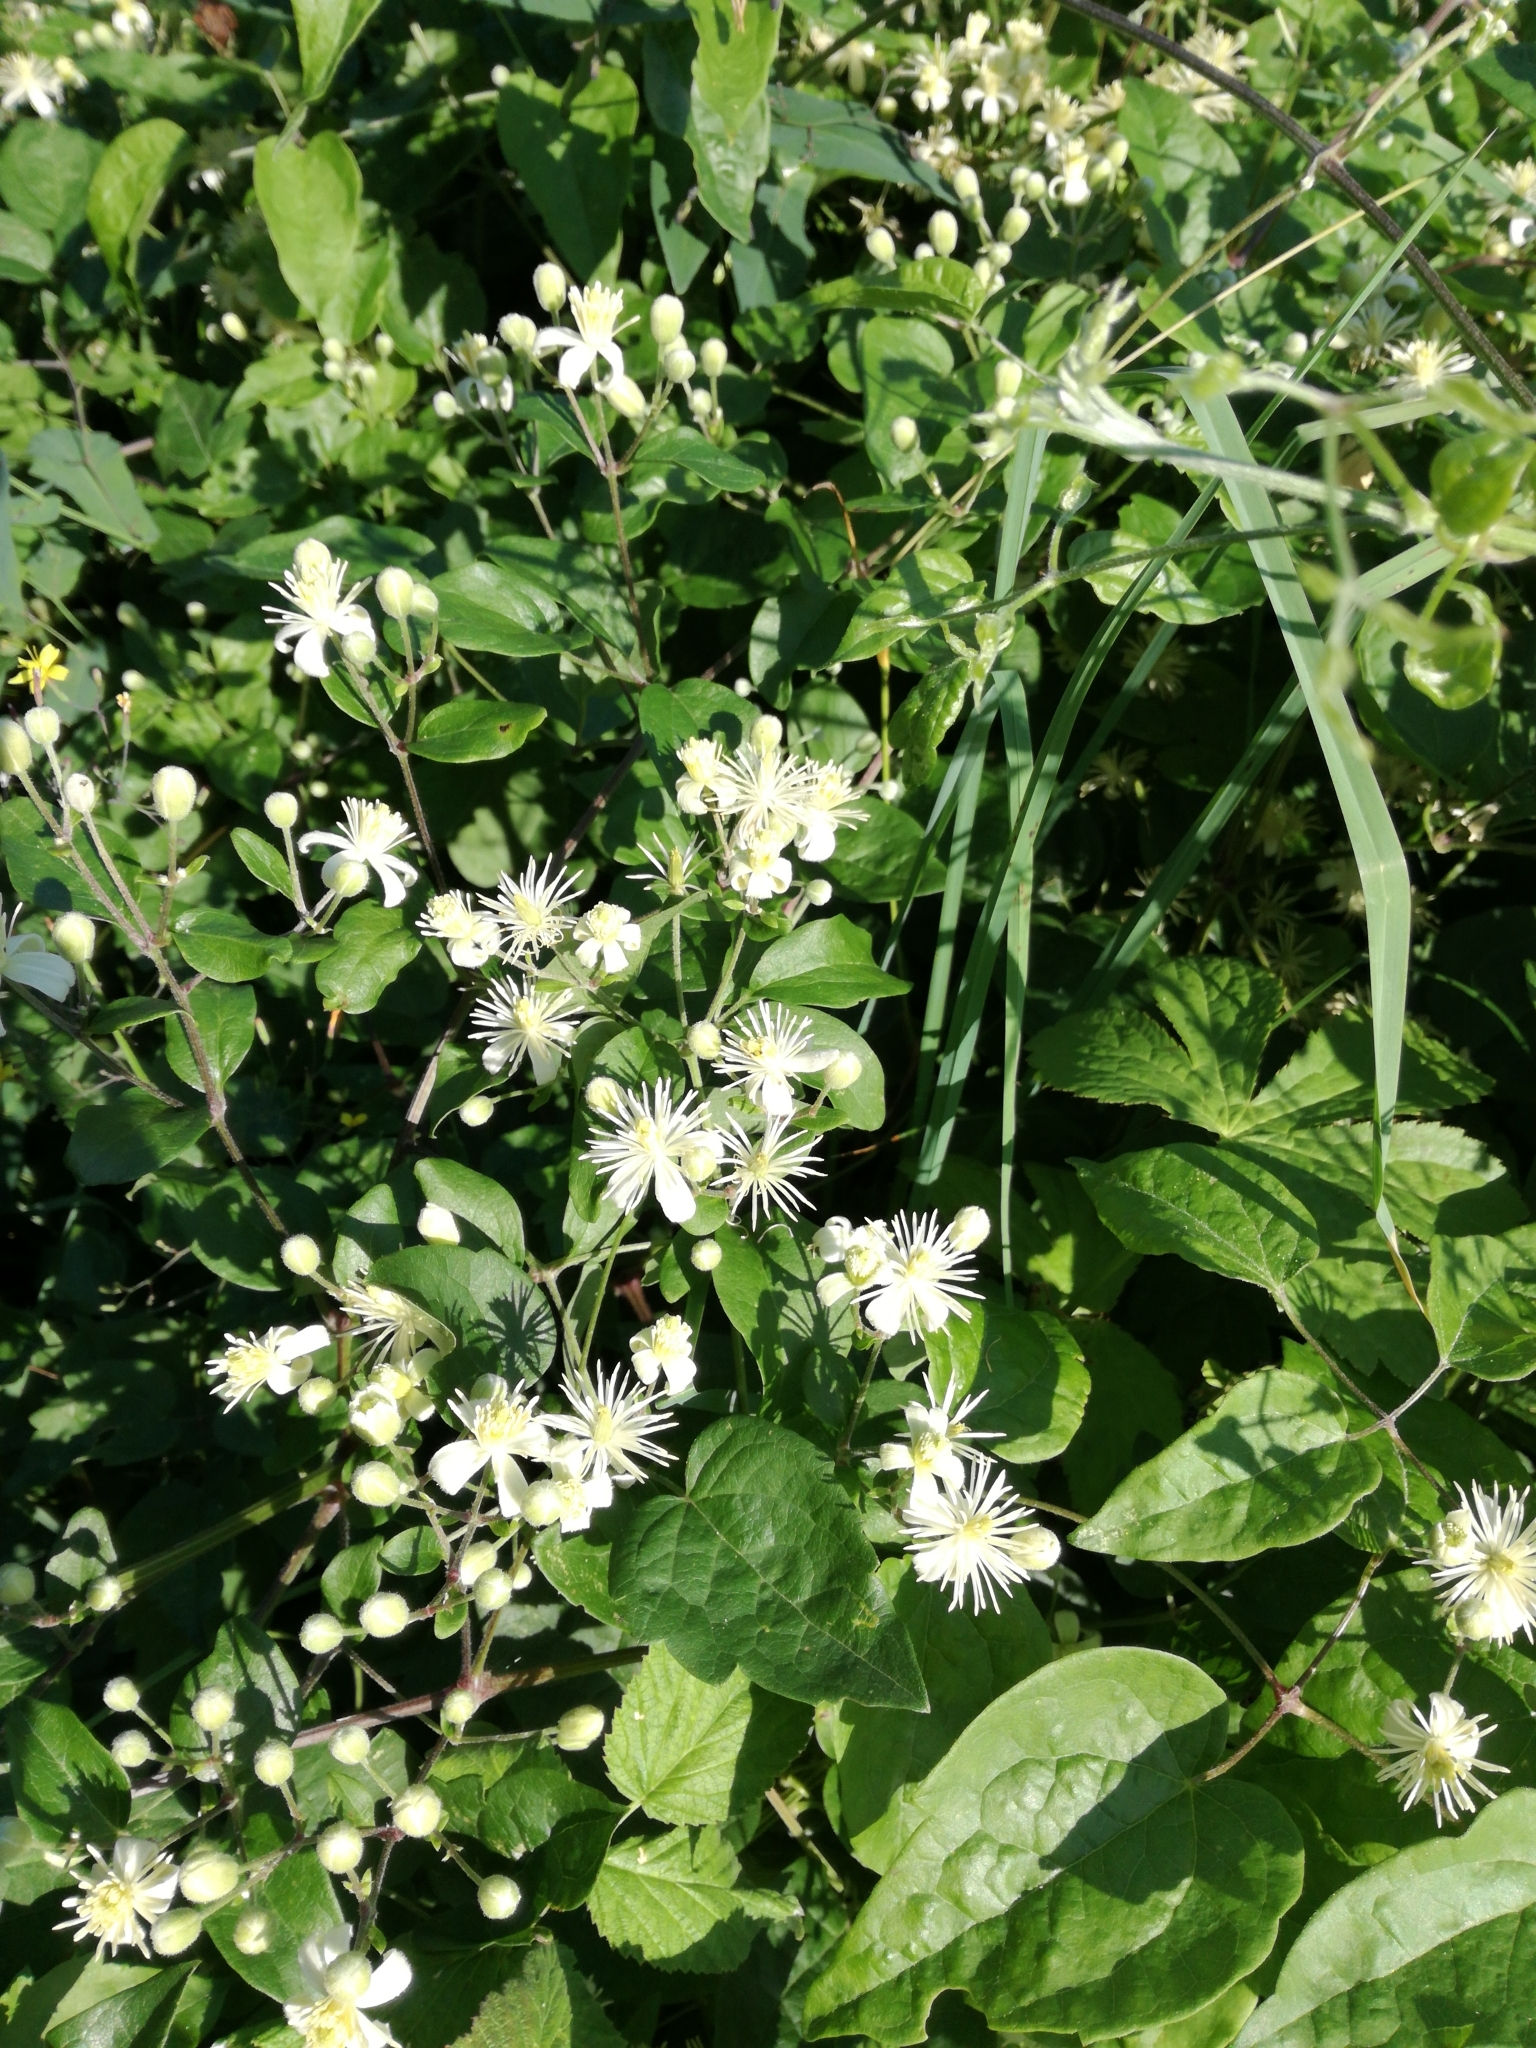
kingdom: Plantae
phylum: Tracheophyta
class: Magnoliopsida
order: Ranunculales
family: Ranunculaceae
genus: Clematis
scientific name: Clematis vitalba
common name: Evergreen clematis
